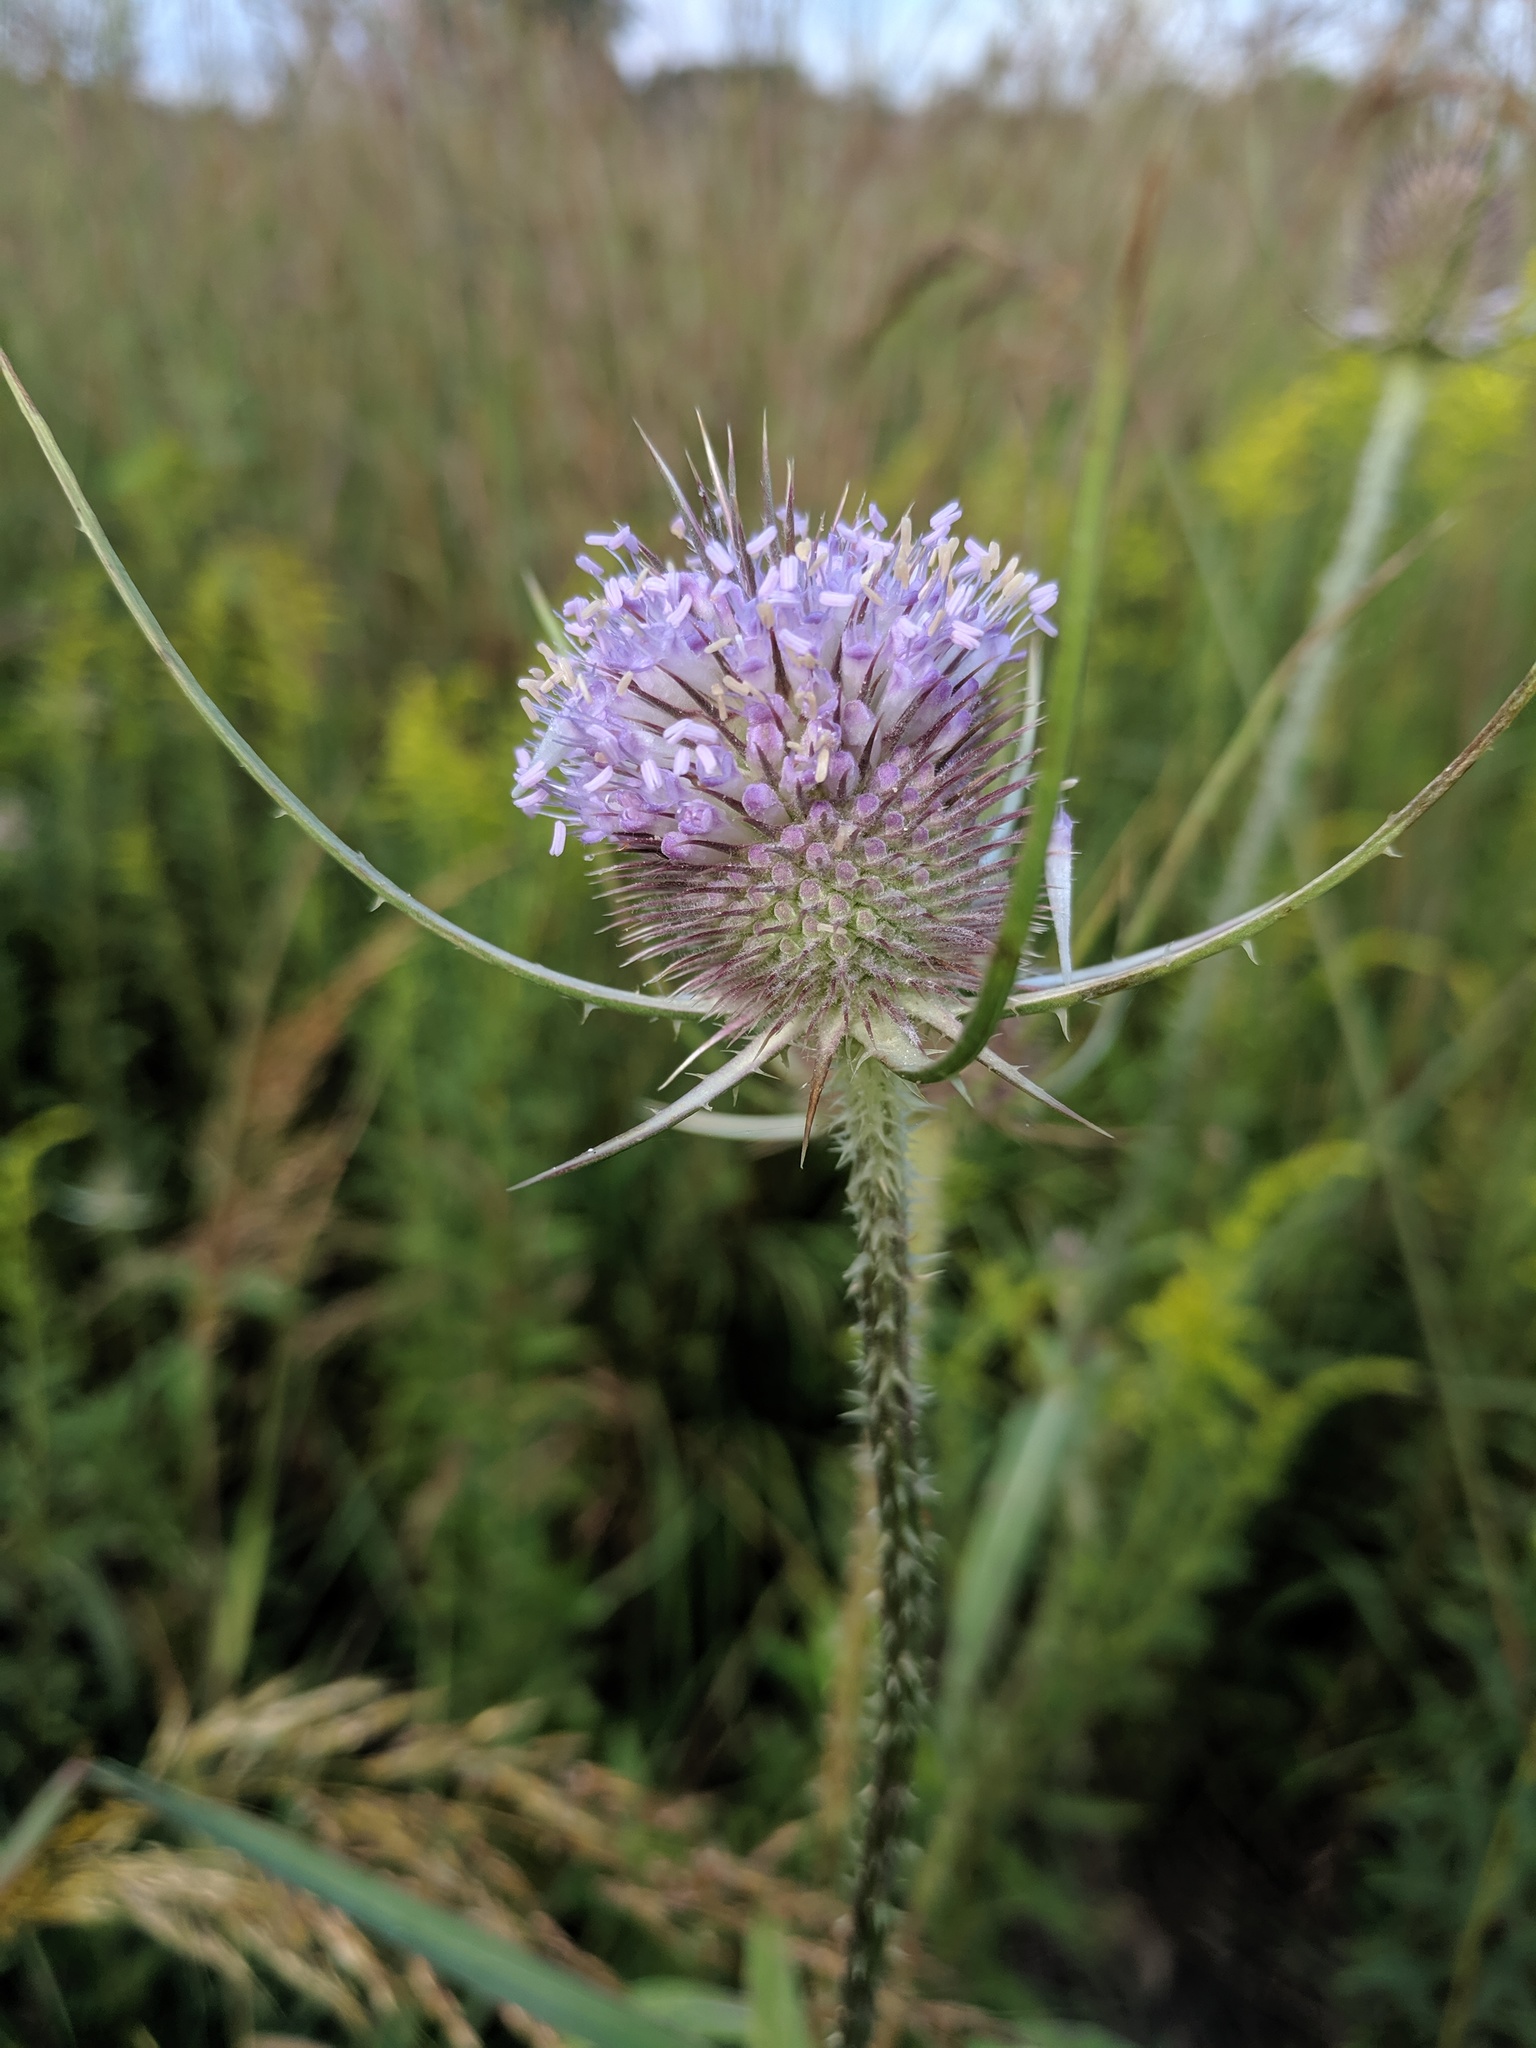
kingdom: Plantae
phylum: Tracheophyta
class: Magnoliopsida
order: Dipsacales
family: Caprifoliaceae
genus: Dipsacus
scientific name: Dipsacus fullonum
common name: Teasel
